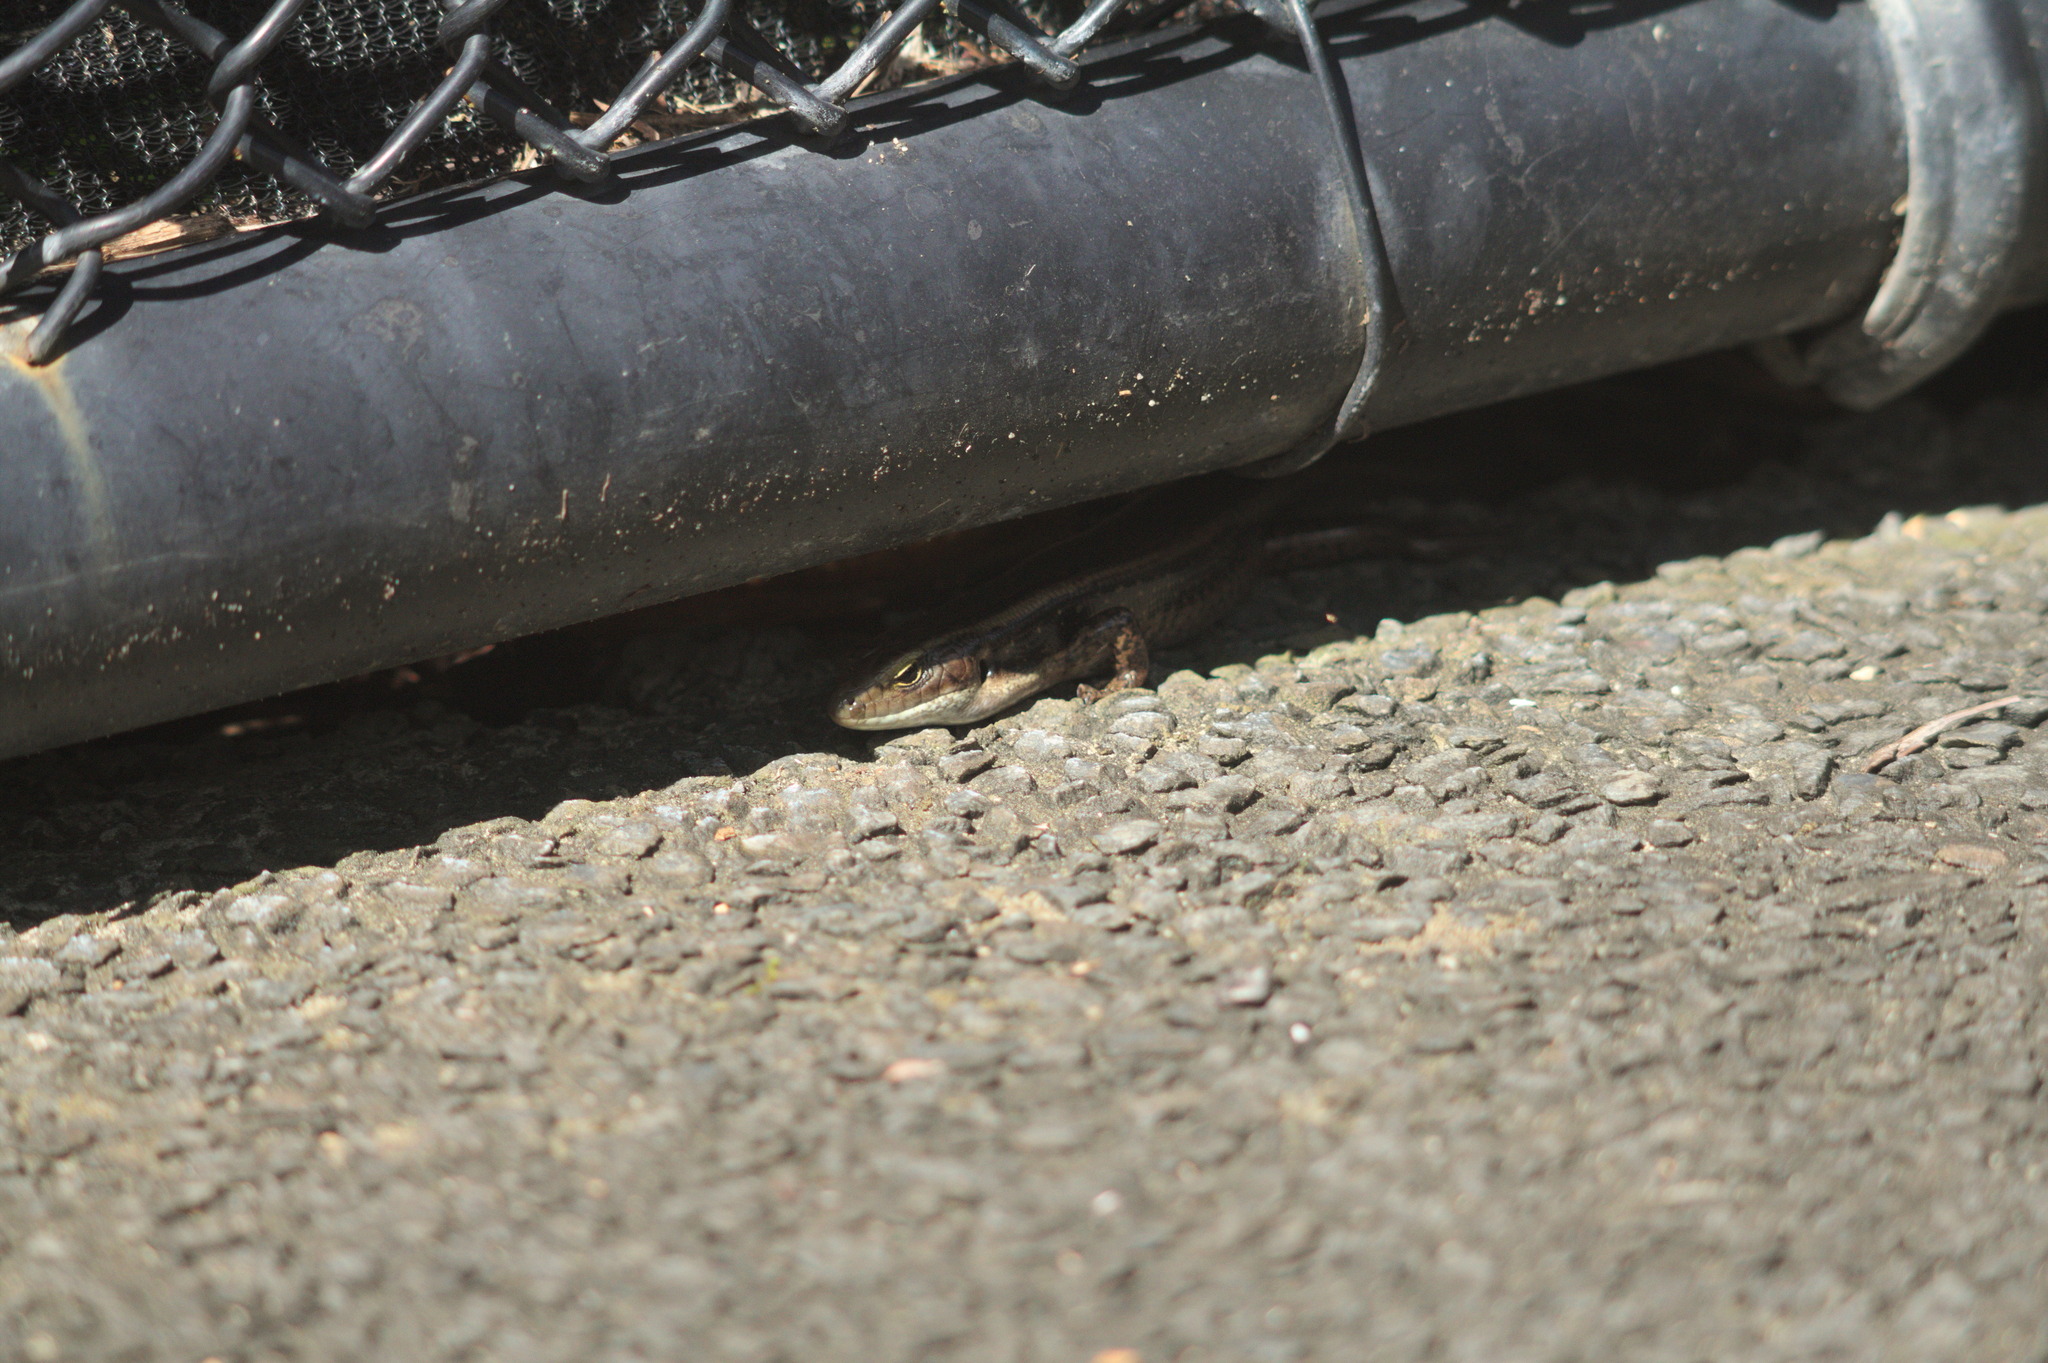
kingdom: Animalia
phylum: Chordata
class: Squamata
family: Scincidae
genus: Eulamprus
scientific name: Eulamprus quoyii
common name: Eastern water skink
